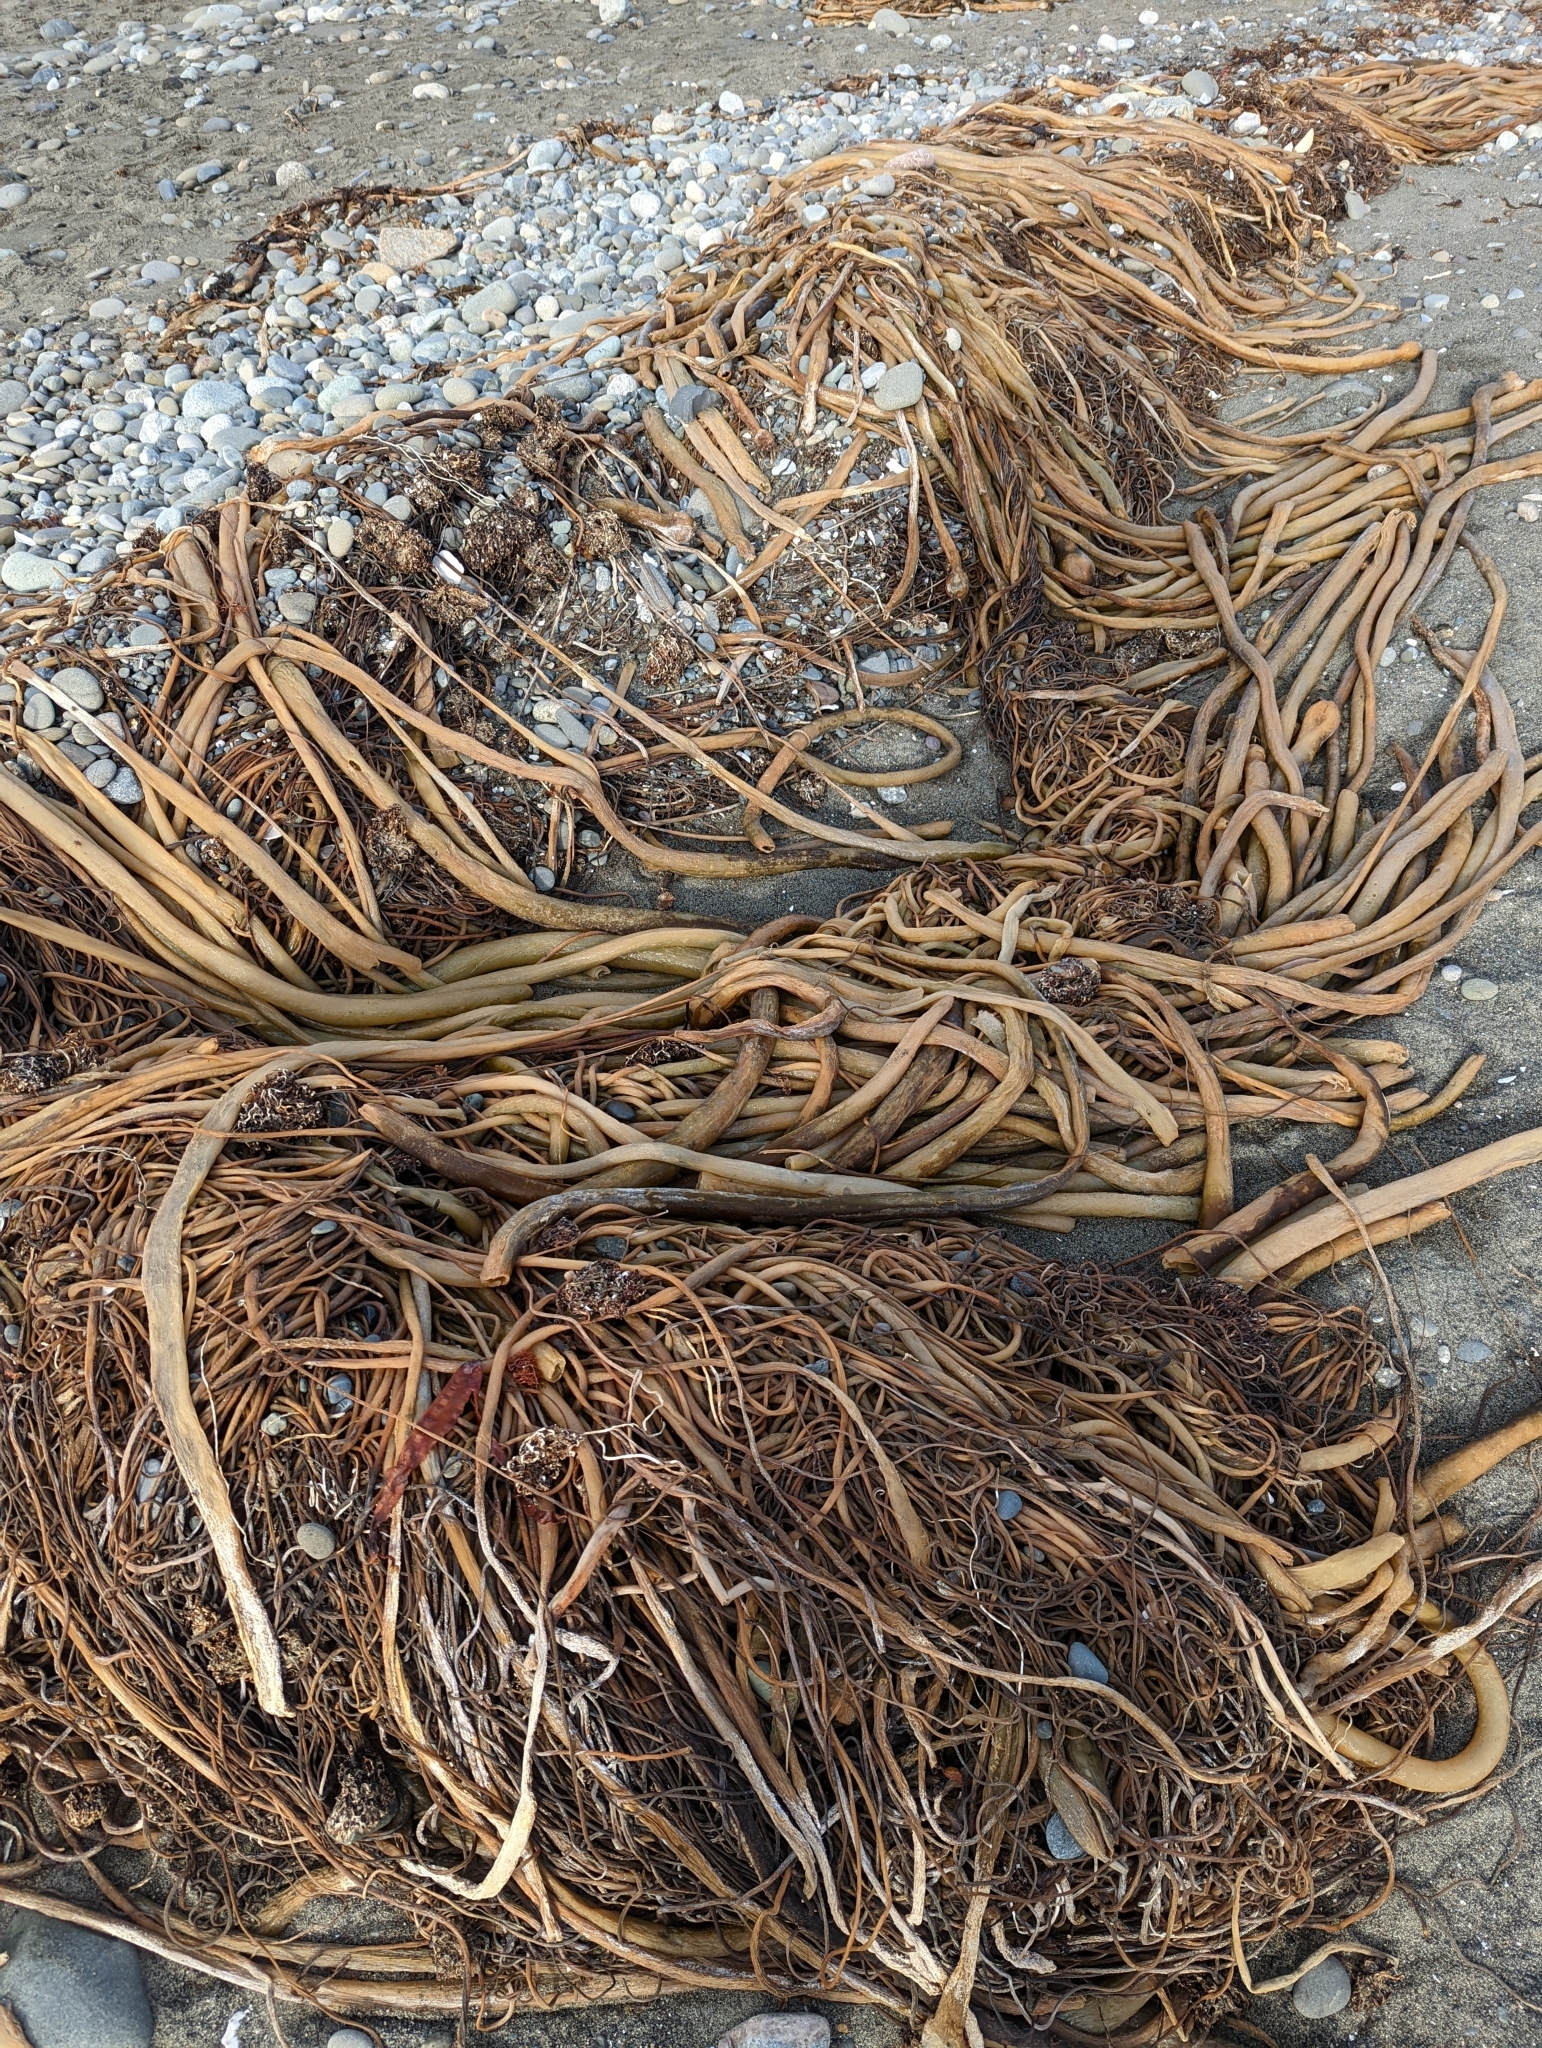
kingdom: Chromista
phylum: Ochrophyta
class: Phaeophyceae
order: Laminariales
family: Laminariaceae
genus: Nereocystis
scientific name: Nereocystis luetkeana
